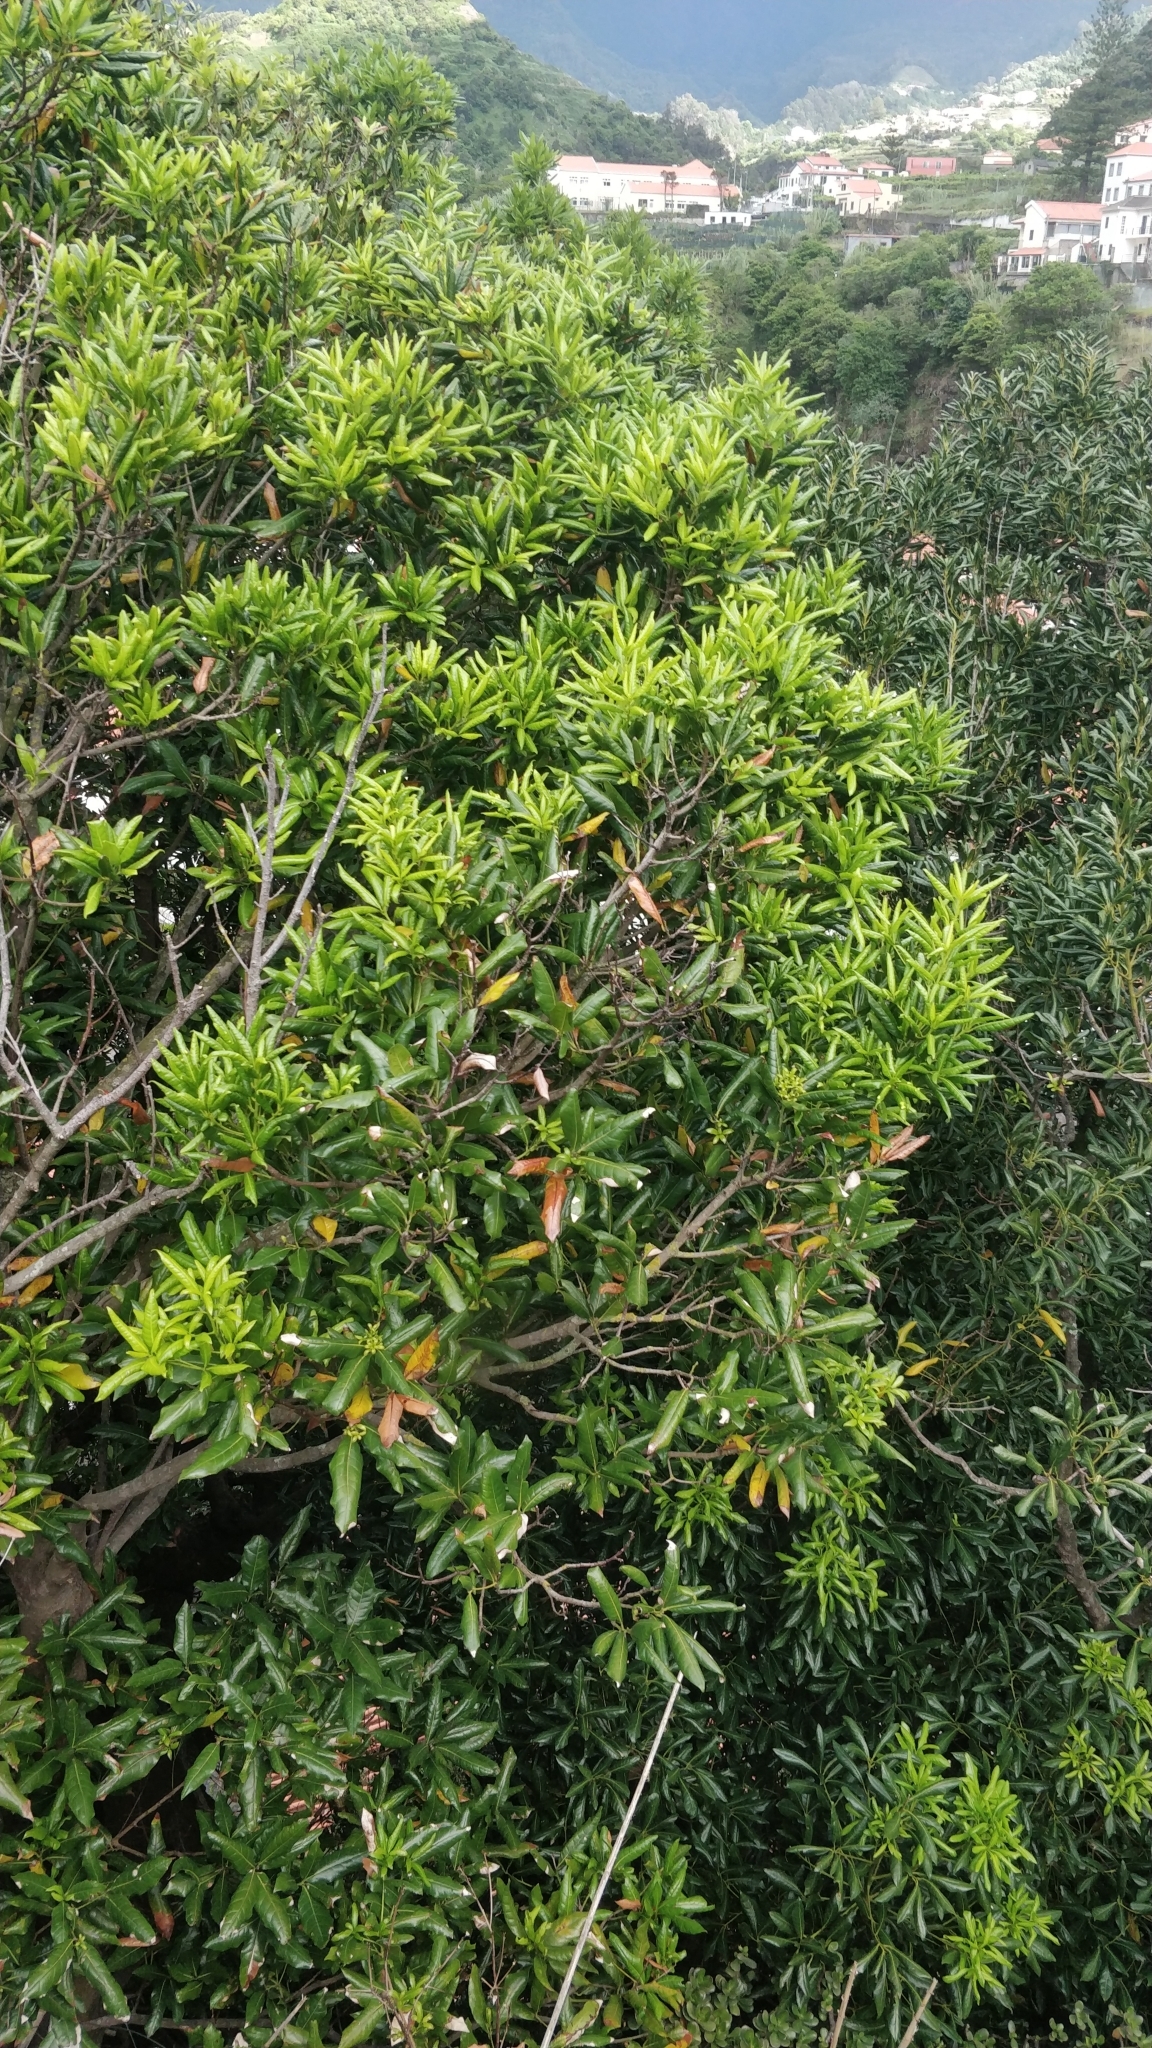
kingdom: Plantae
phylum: Tracheophyta
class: Magnoliopsida
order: Laurales
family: Lauraceae
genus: Apollonias
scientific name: Apollonias barbujana
